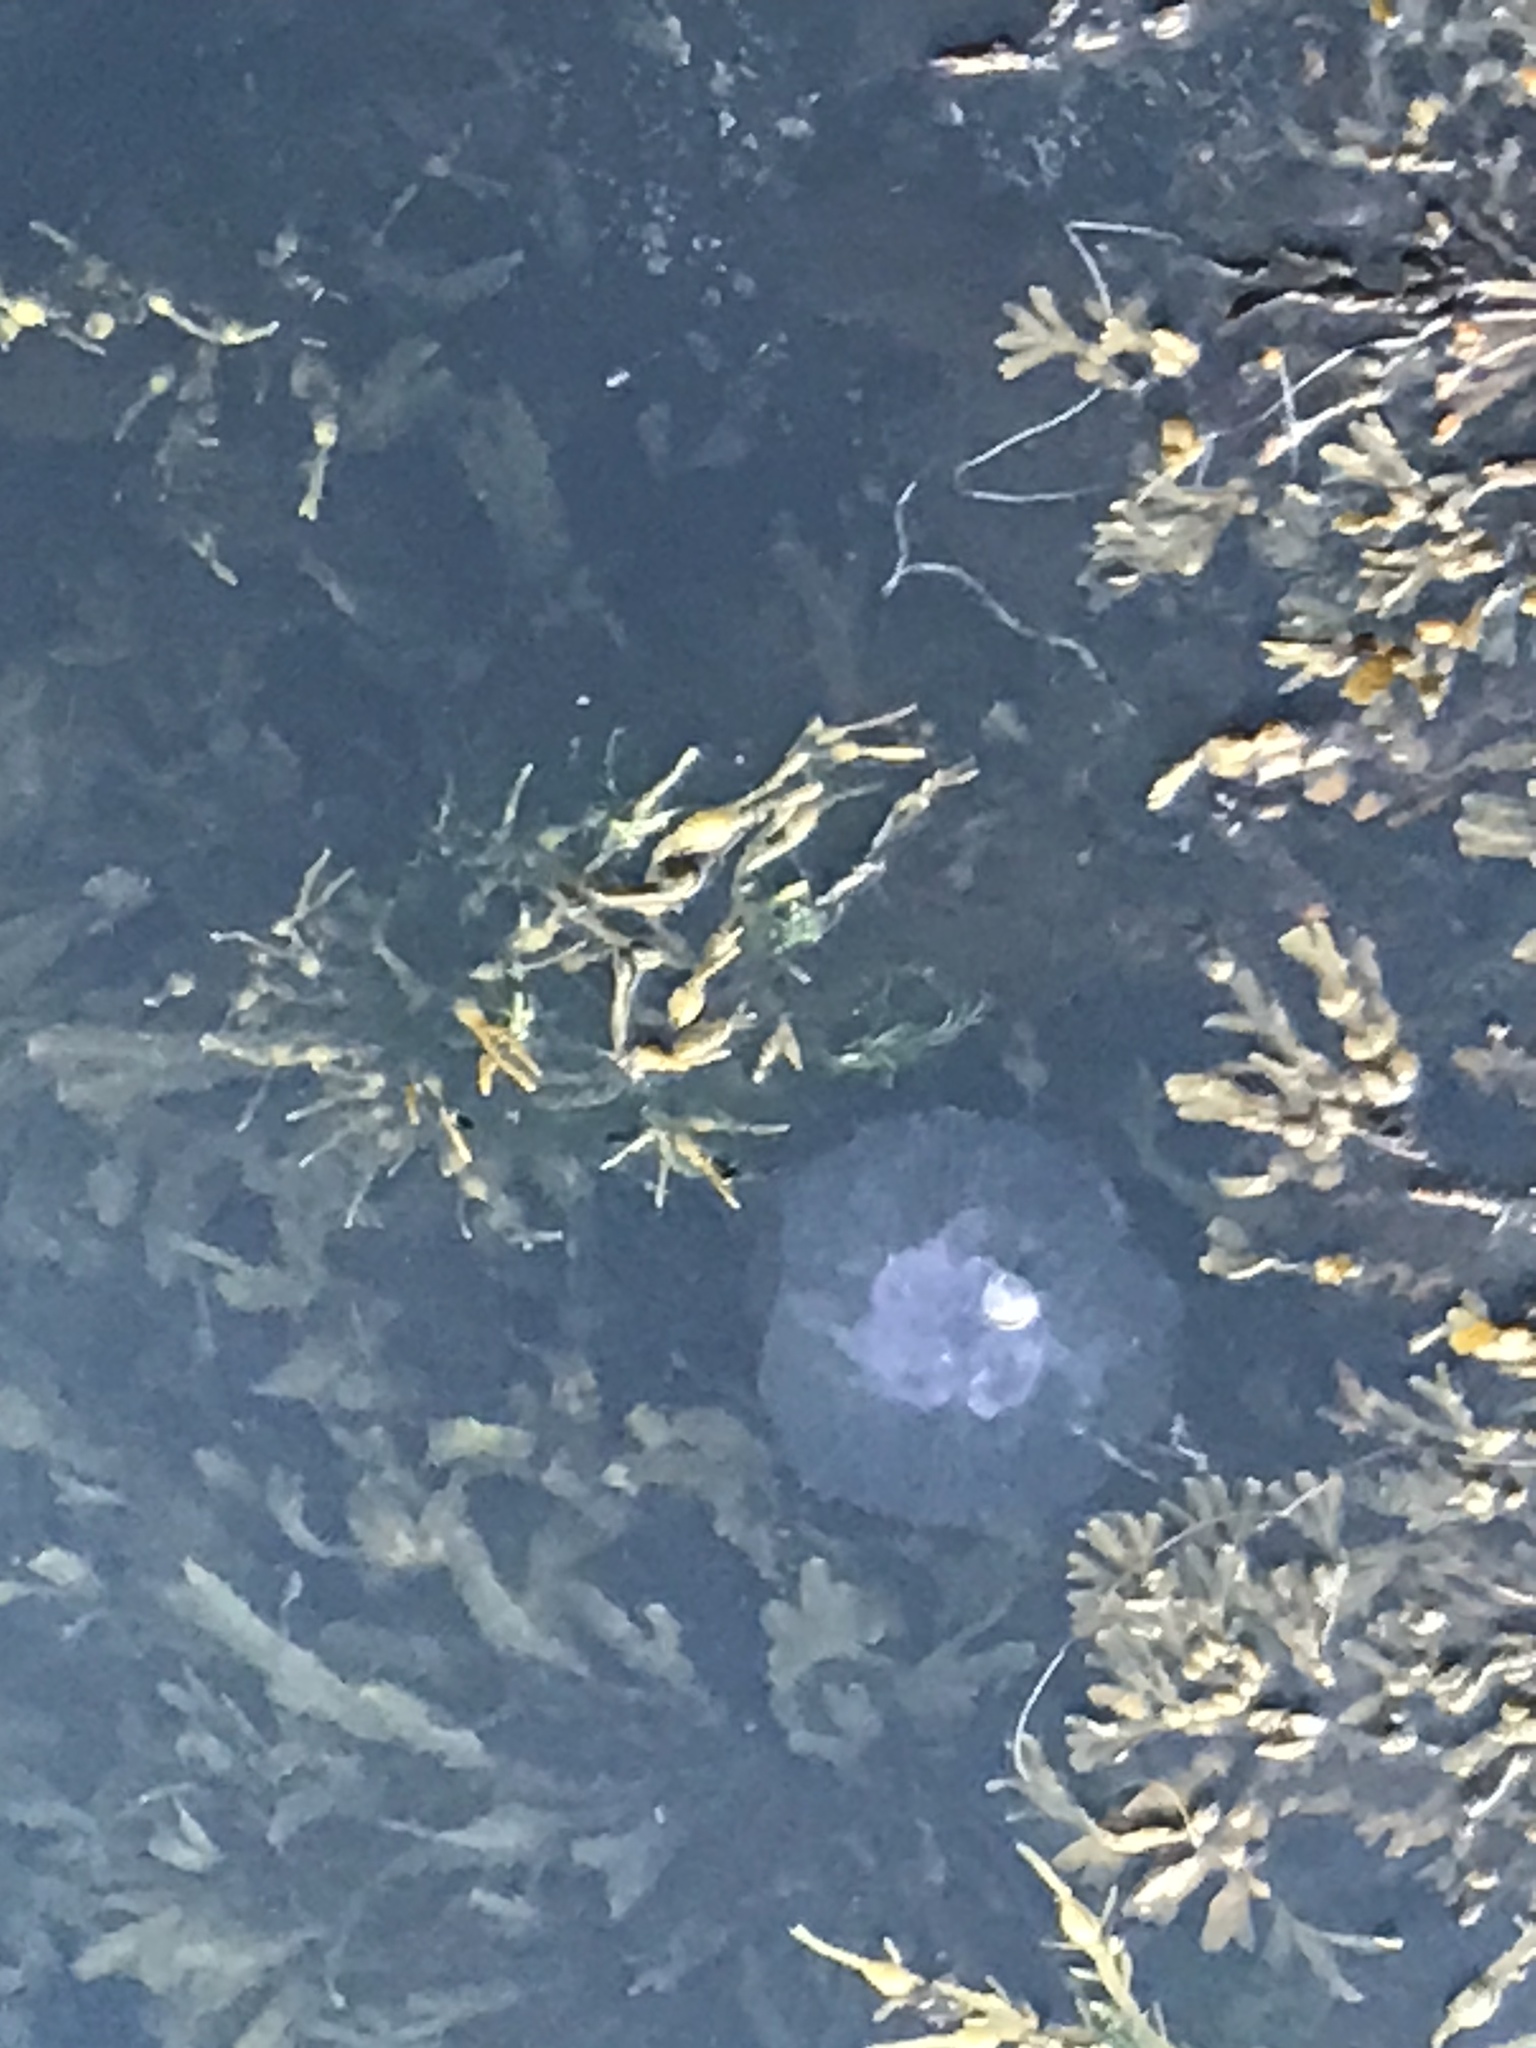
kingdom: Animalia
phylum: Cnidaria
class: Scyphozoa
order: Semaeostomeae
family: Ulmaridae
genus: Aurelia
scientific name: Aurelia aurita
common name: Moon jellyfish
